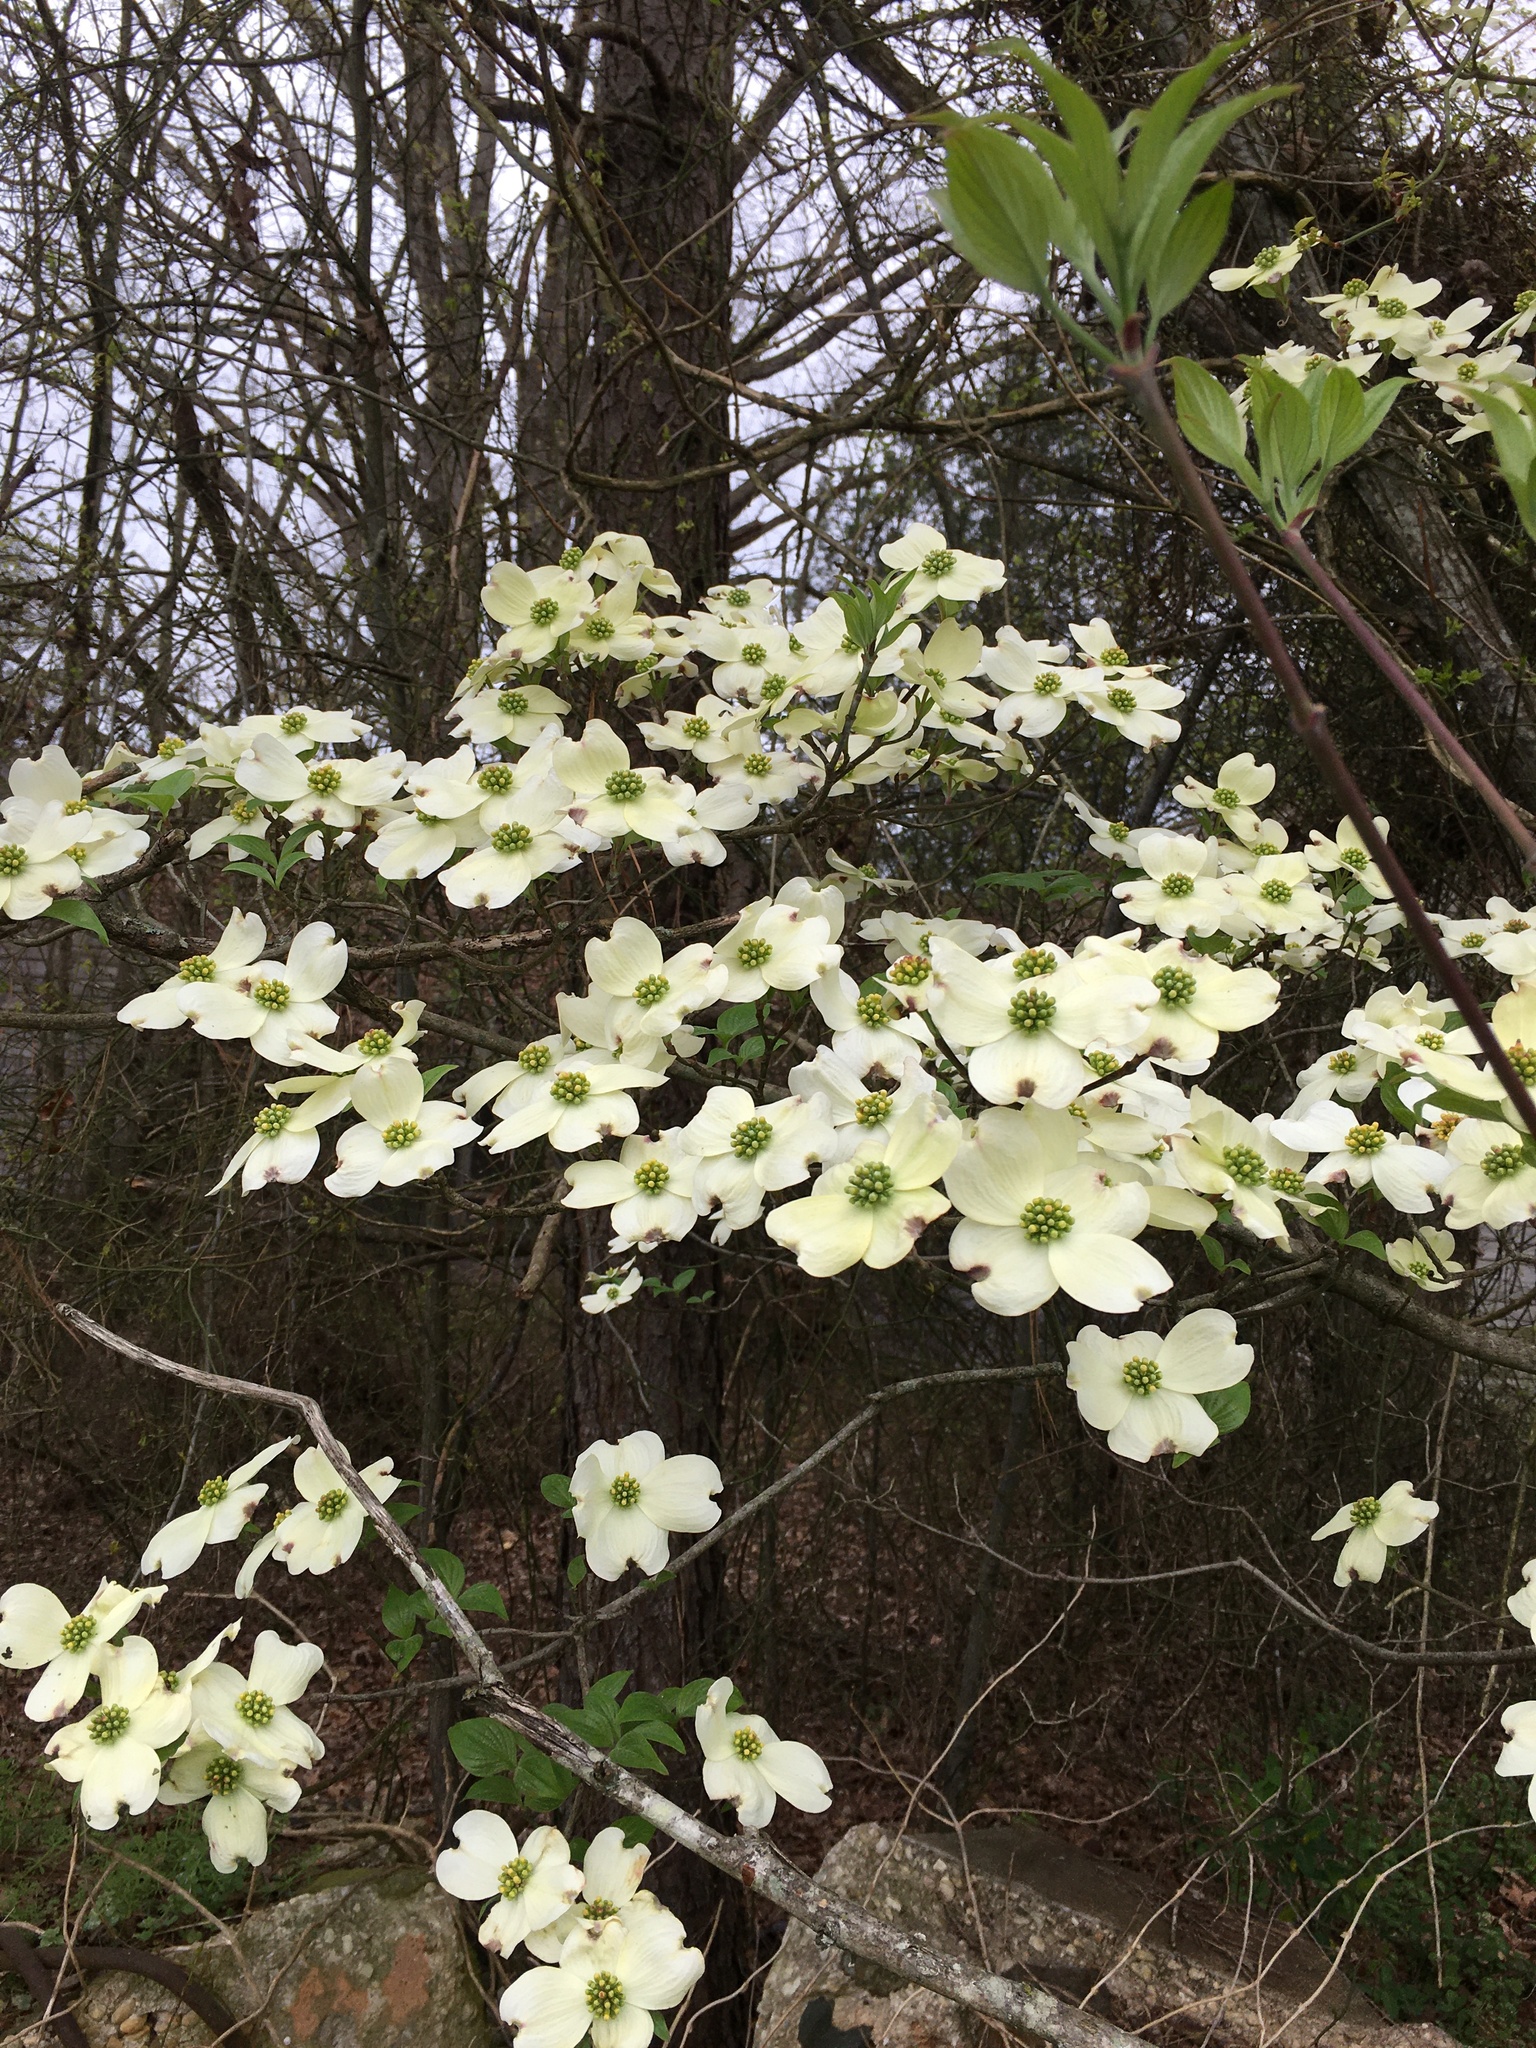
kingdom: Plantae
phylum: Tracheophyta
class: Magnoliopsida
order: Cornales
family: Cornaceae
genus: Cornus
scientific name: Cornus florida
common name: Flowering dogwood
